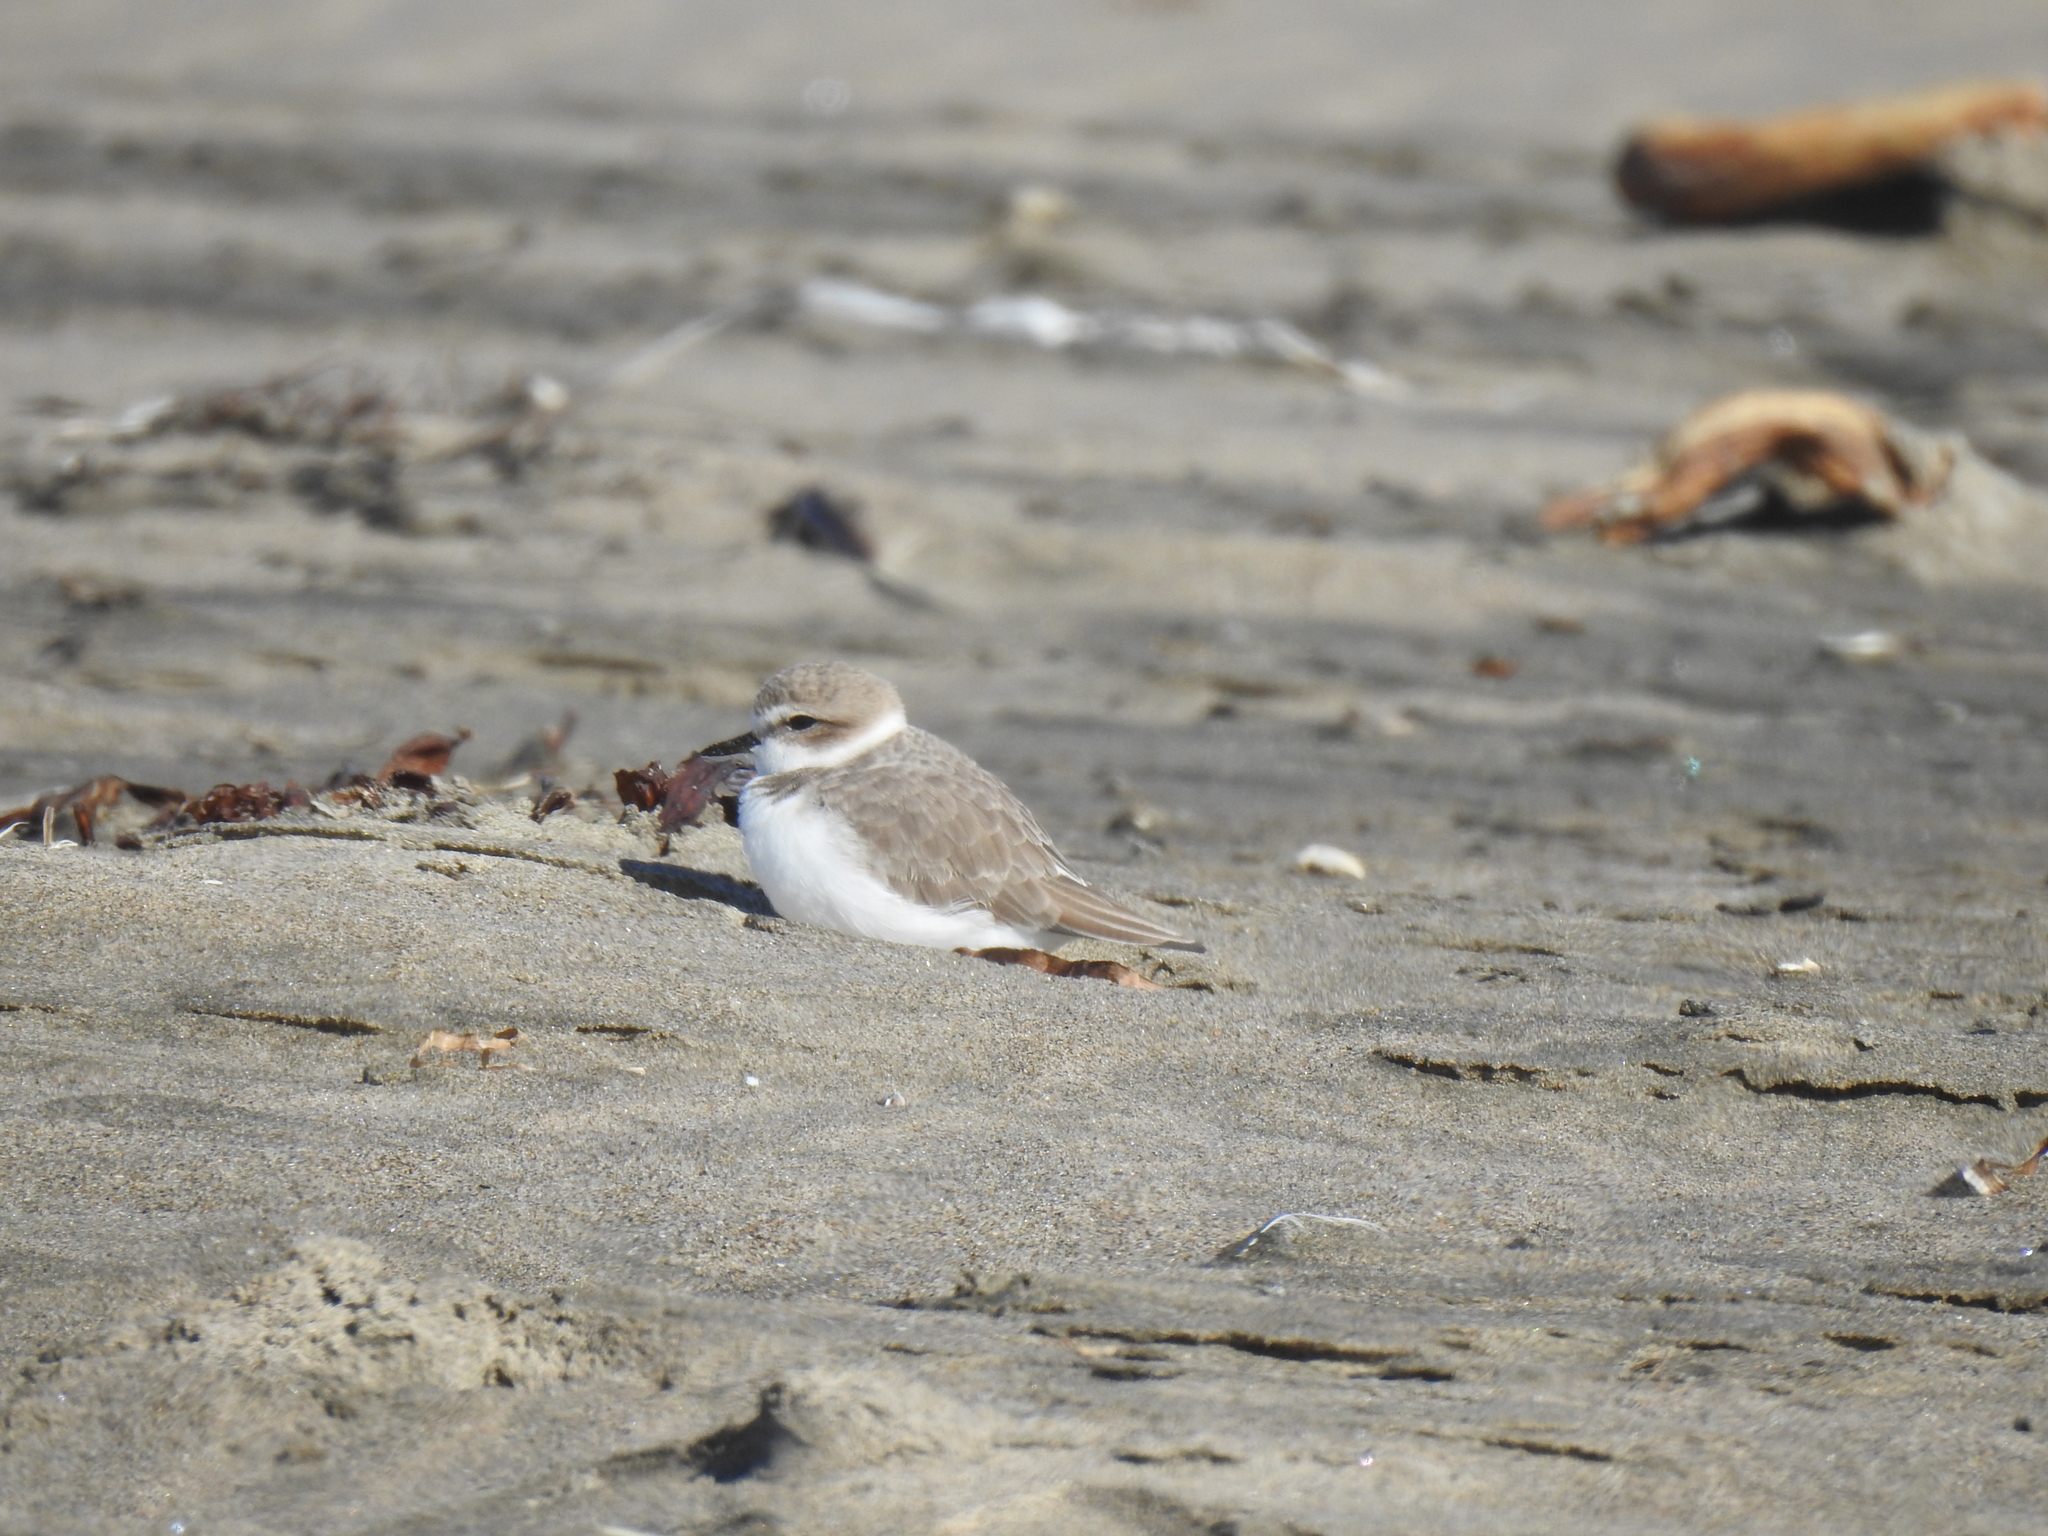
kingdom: Animalia
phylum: Chordata
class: Aves
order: Charadriiformes
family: Charadriidae
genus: Anarhynchus
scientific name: Anarhynchus
